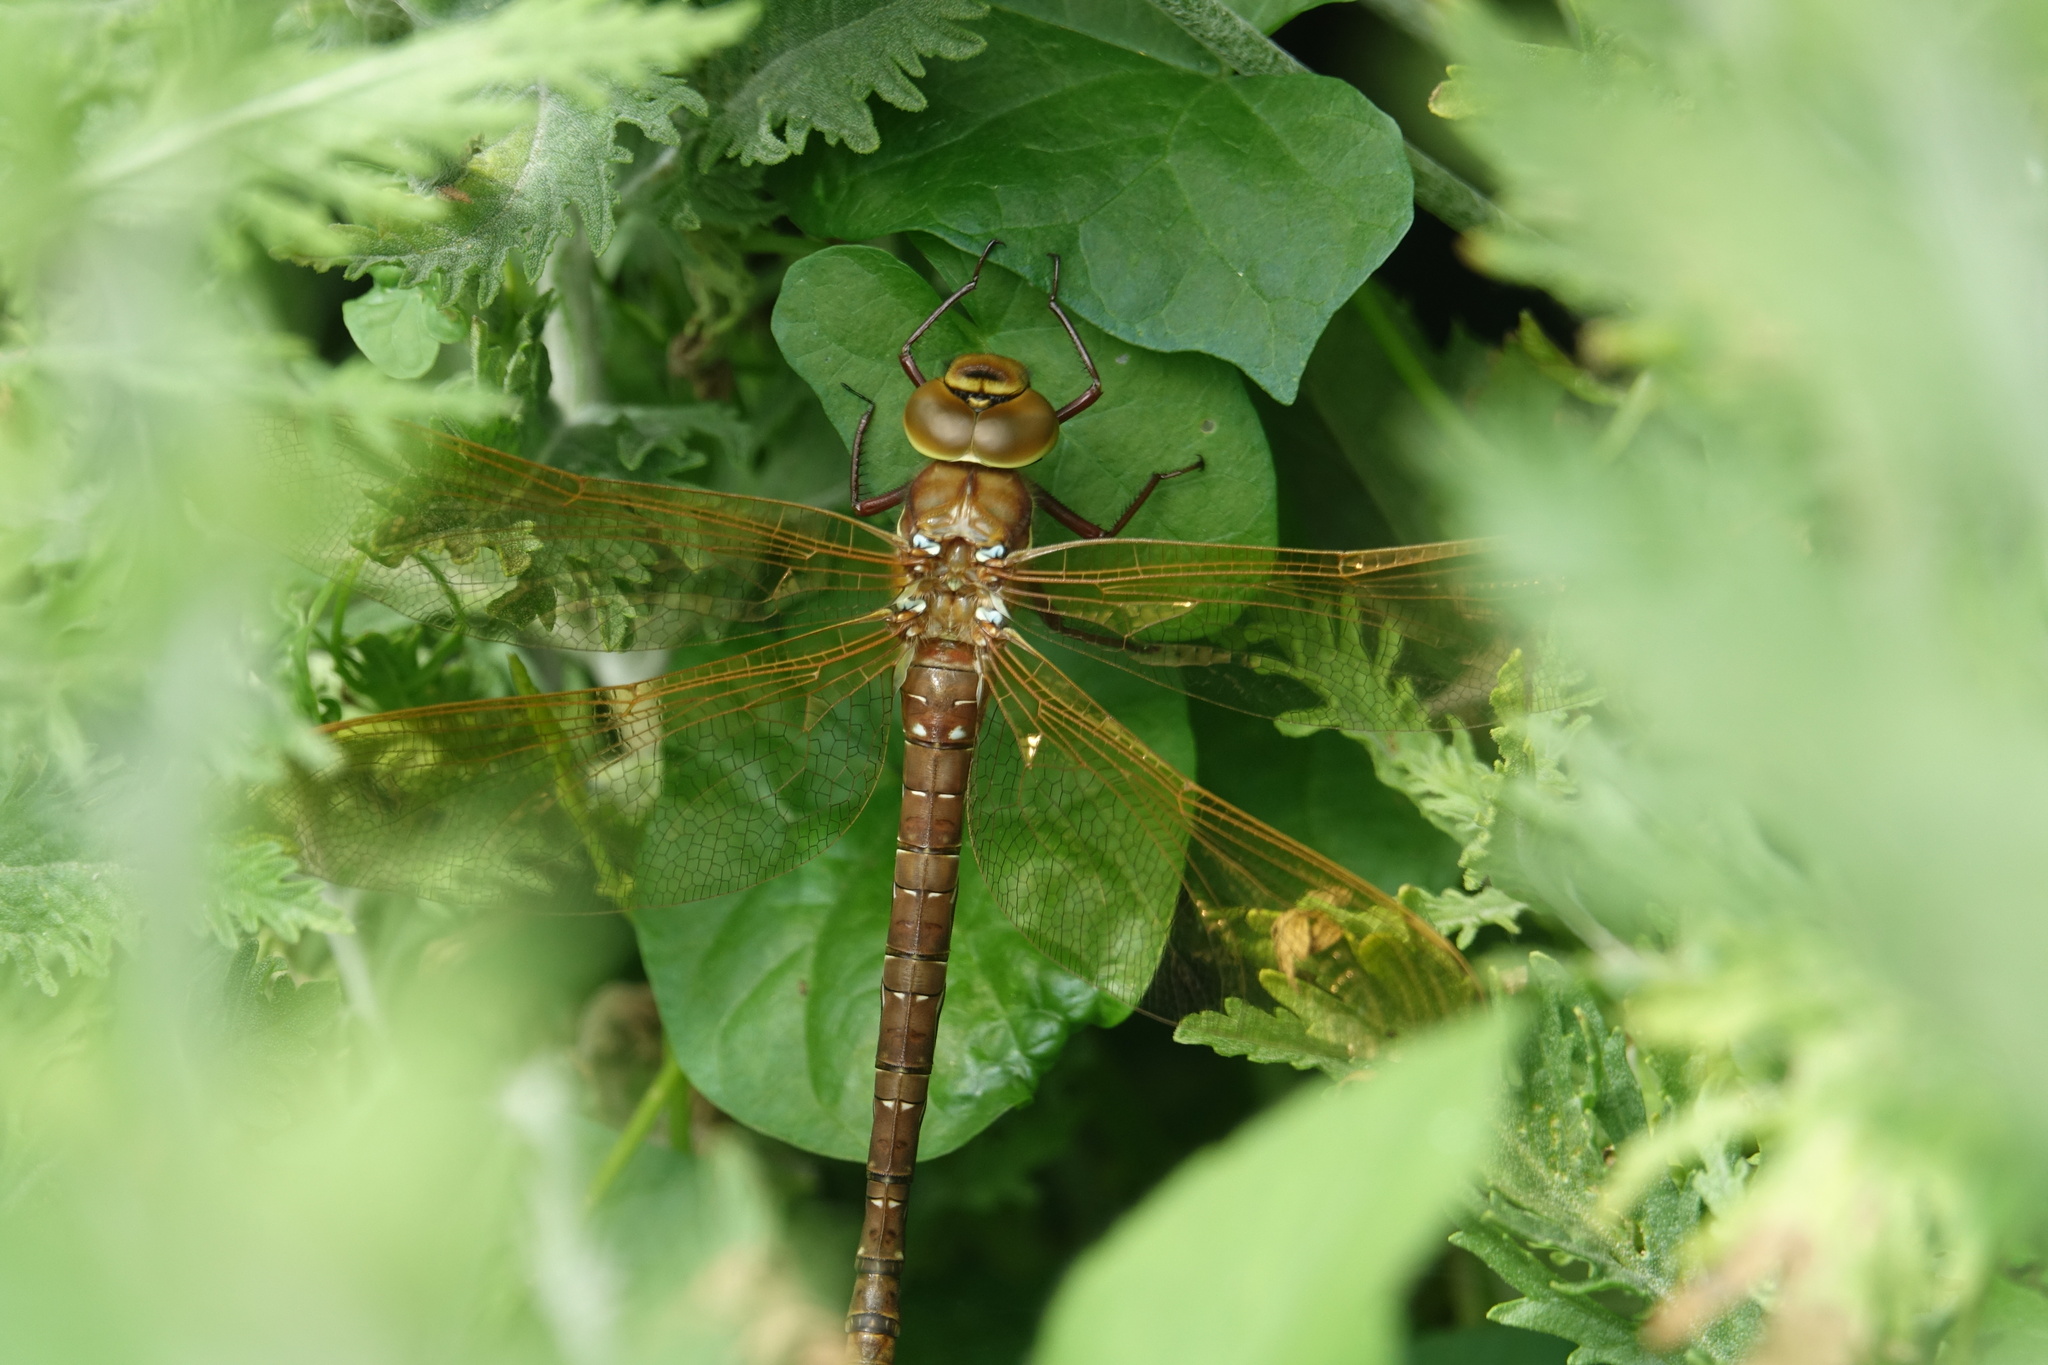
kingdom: Animalia
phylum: Arthropoda
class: Insecta
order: Odonata
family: Aeshnidae
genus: Aeshna
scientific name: Aeshna grandis
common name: Brown hawker
